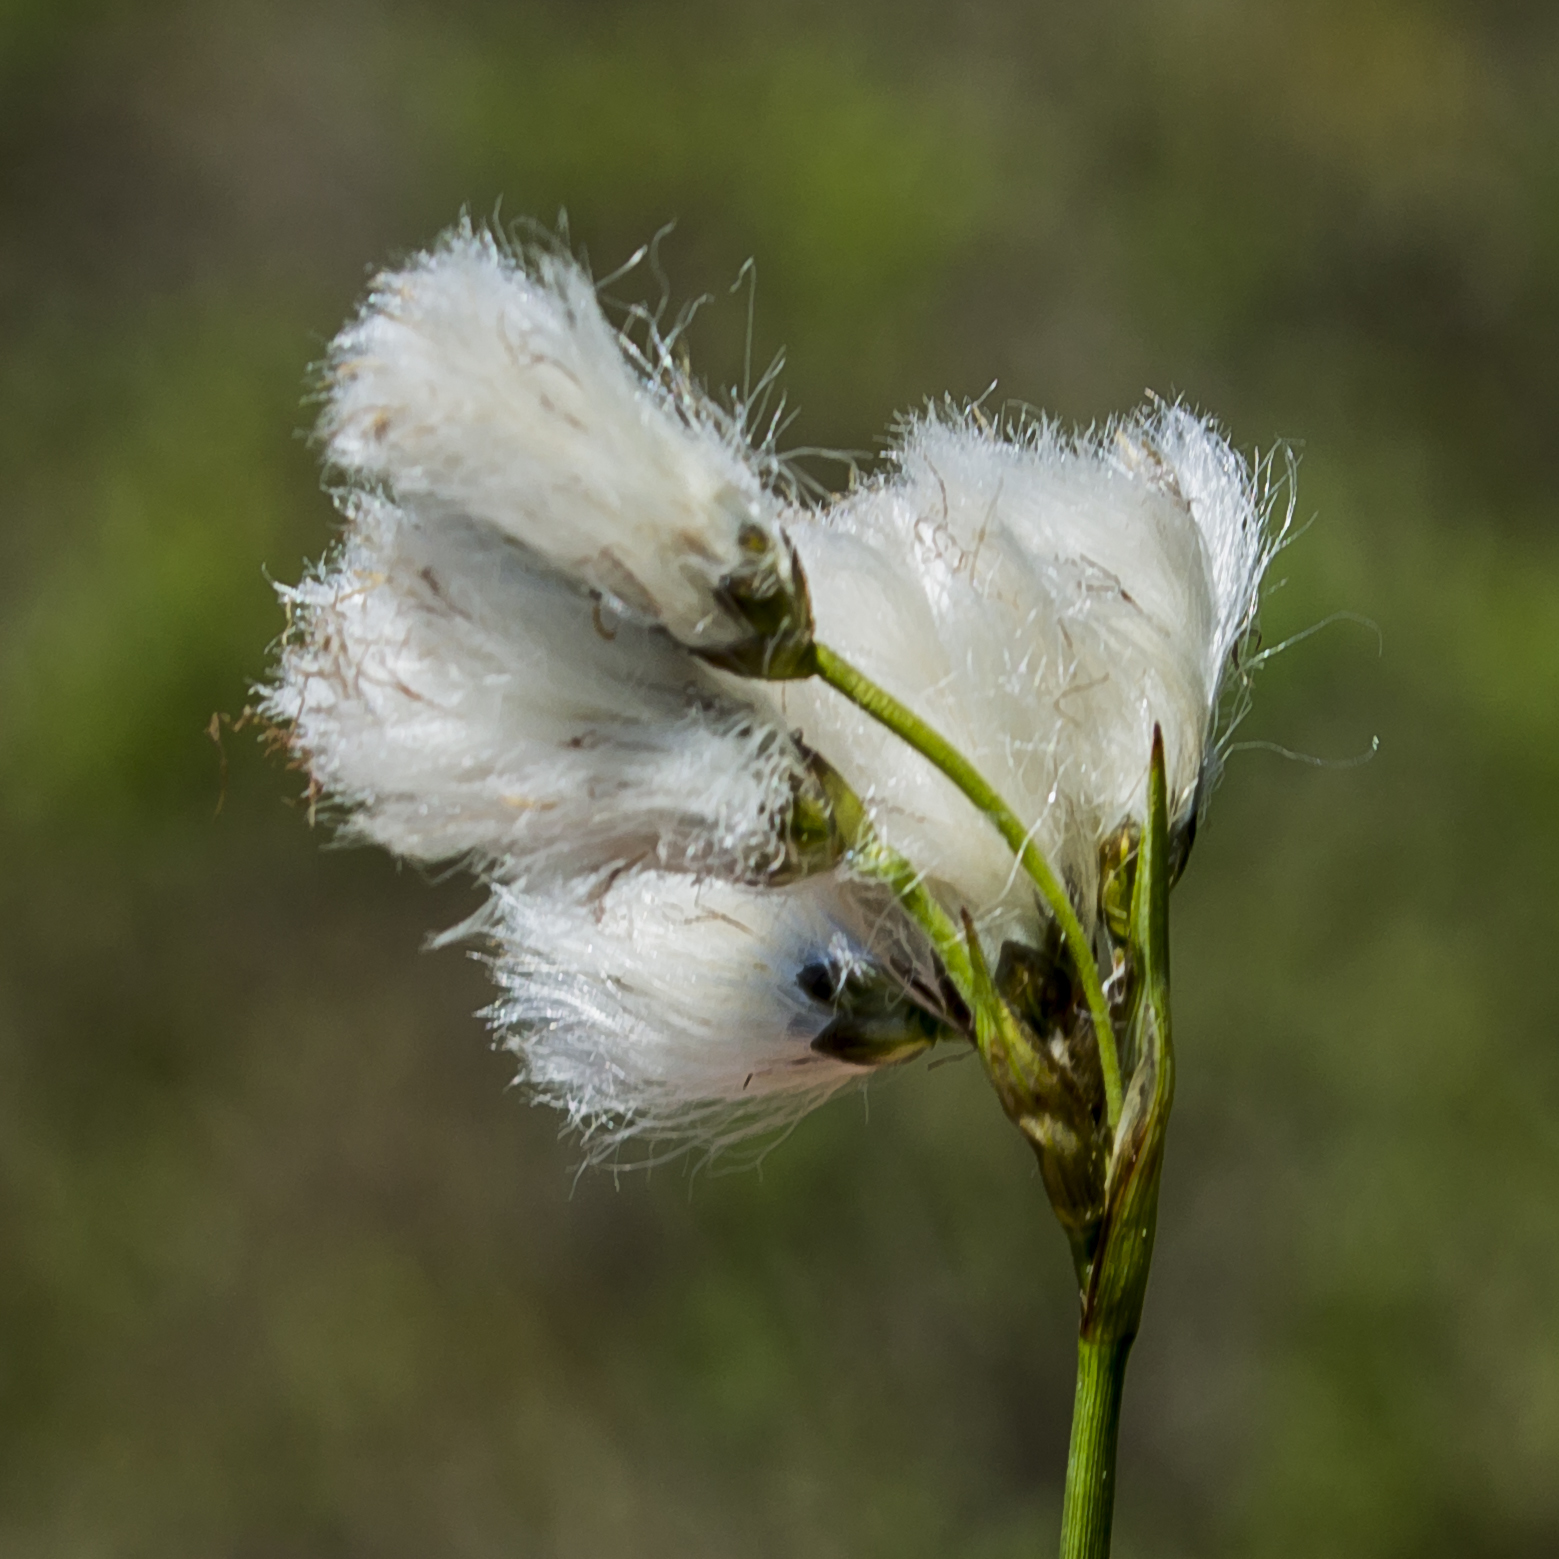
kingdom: Plantae
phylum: Tracheophyta
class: Liliopsida
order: Poales
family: Cyperaceae
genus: Eriophorum
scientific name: Eriophorum angustifolium
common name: Common cottongrass
